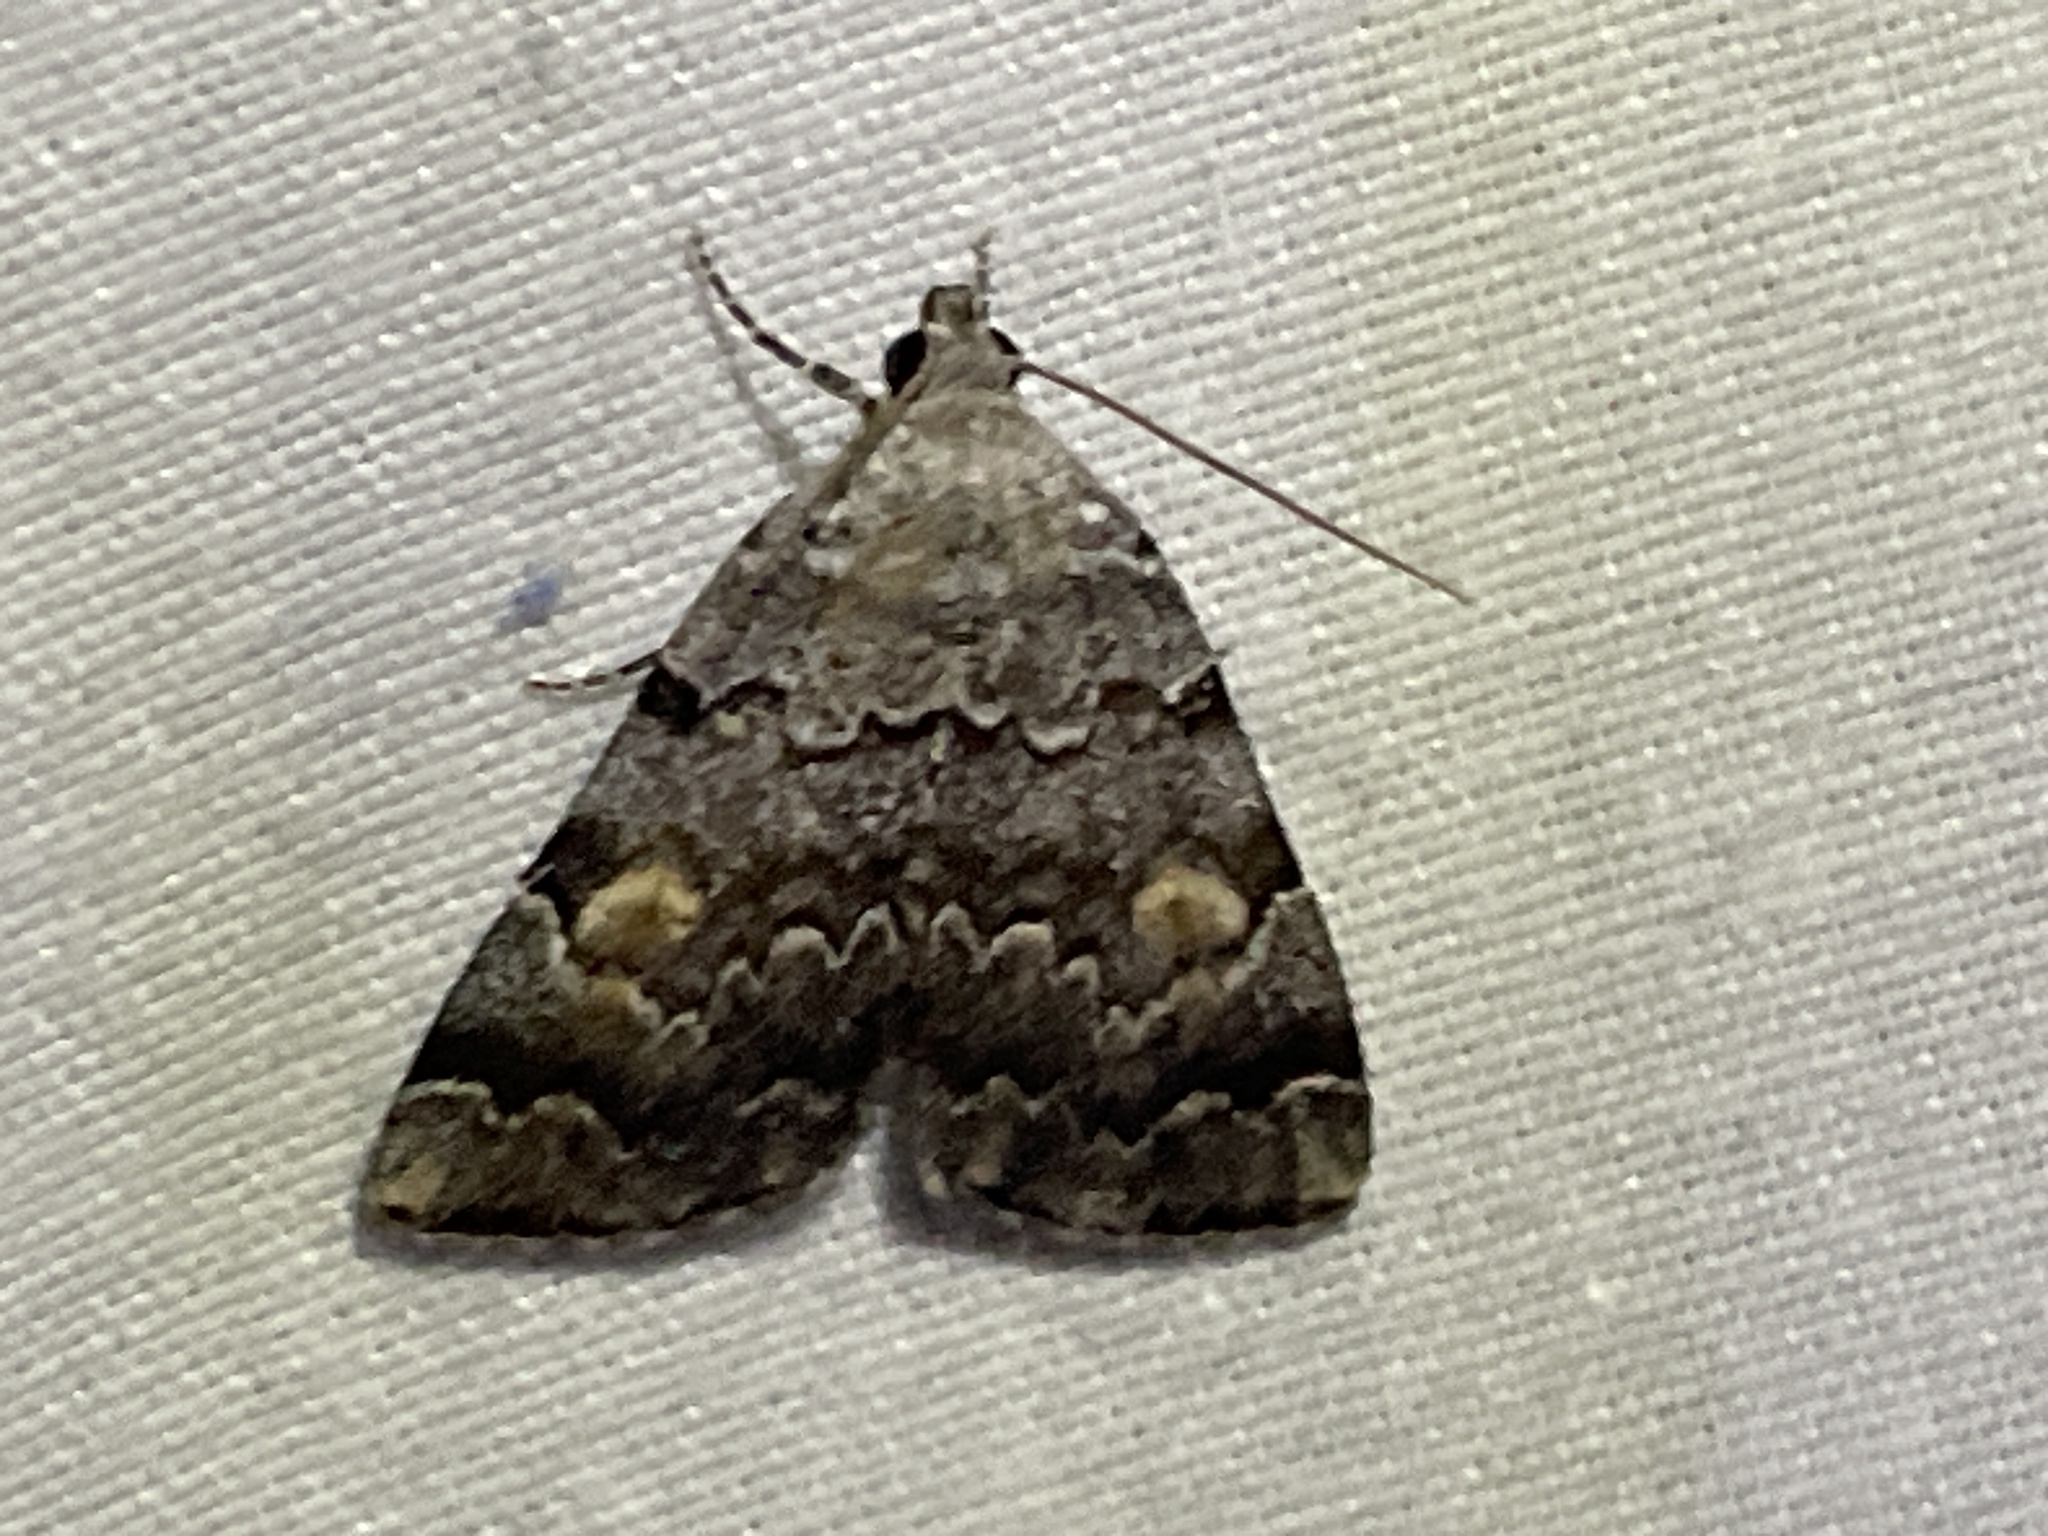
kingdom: Animalia
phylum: Arthropoda
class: Insecta
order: Lepidoptera
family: Erebidae
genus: Idia
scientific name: Idia americalis
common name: American idia moth
